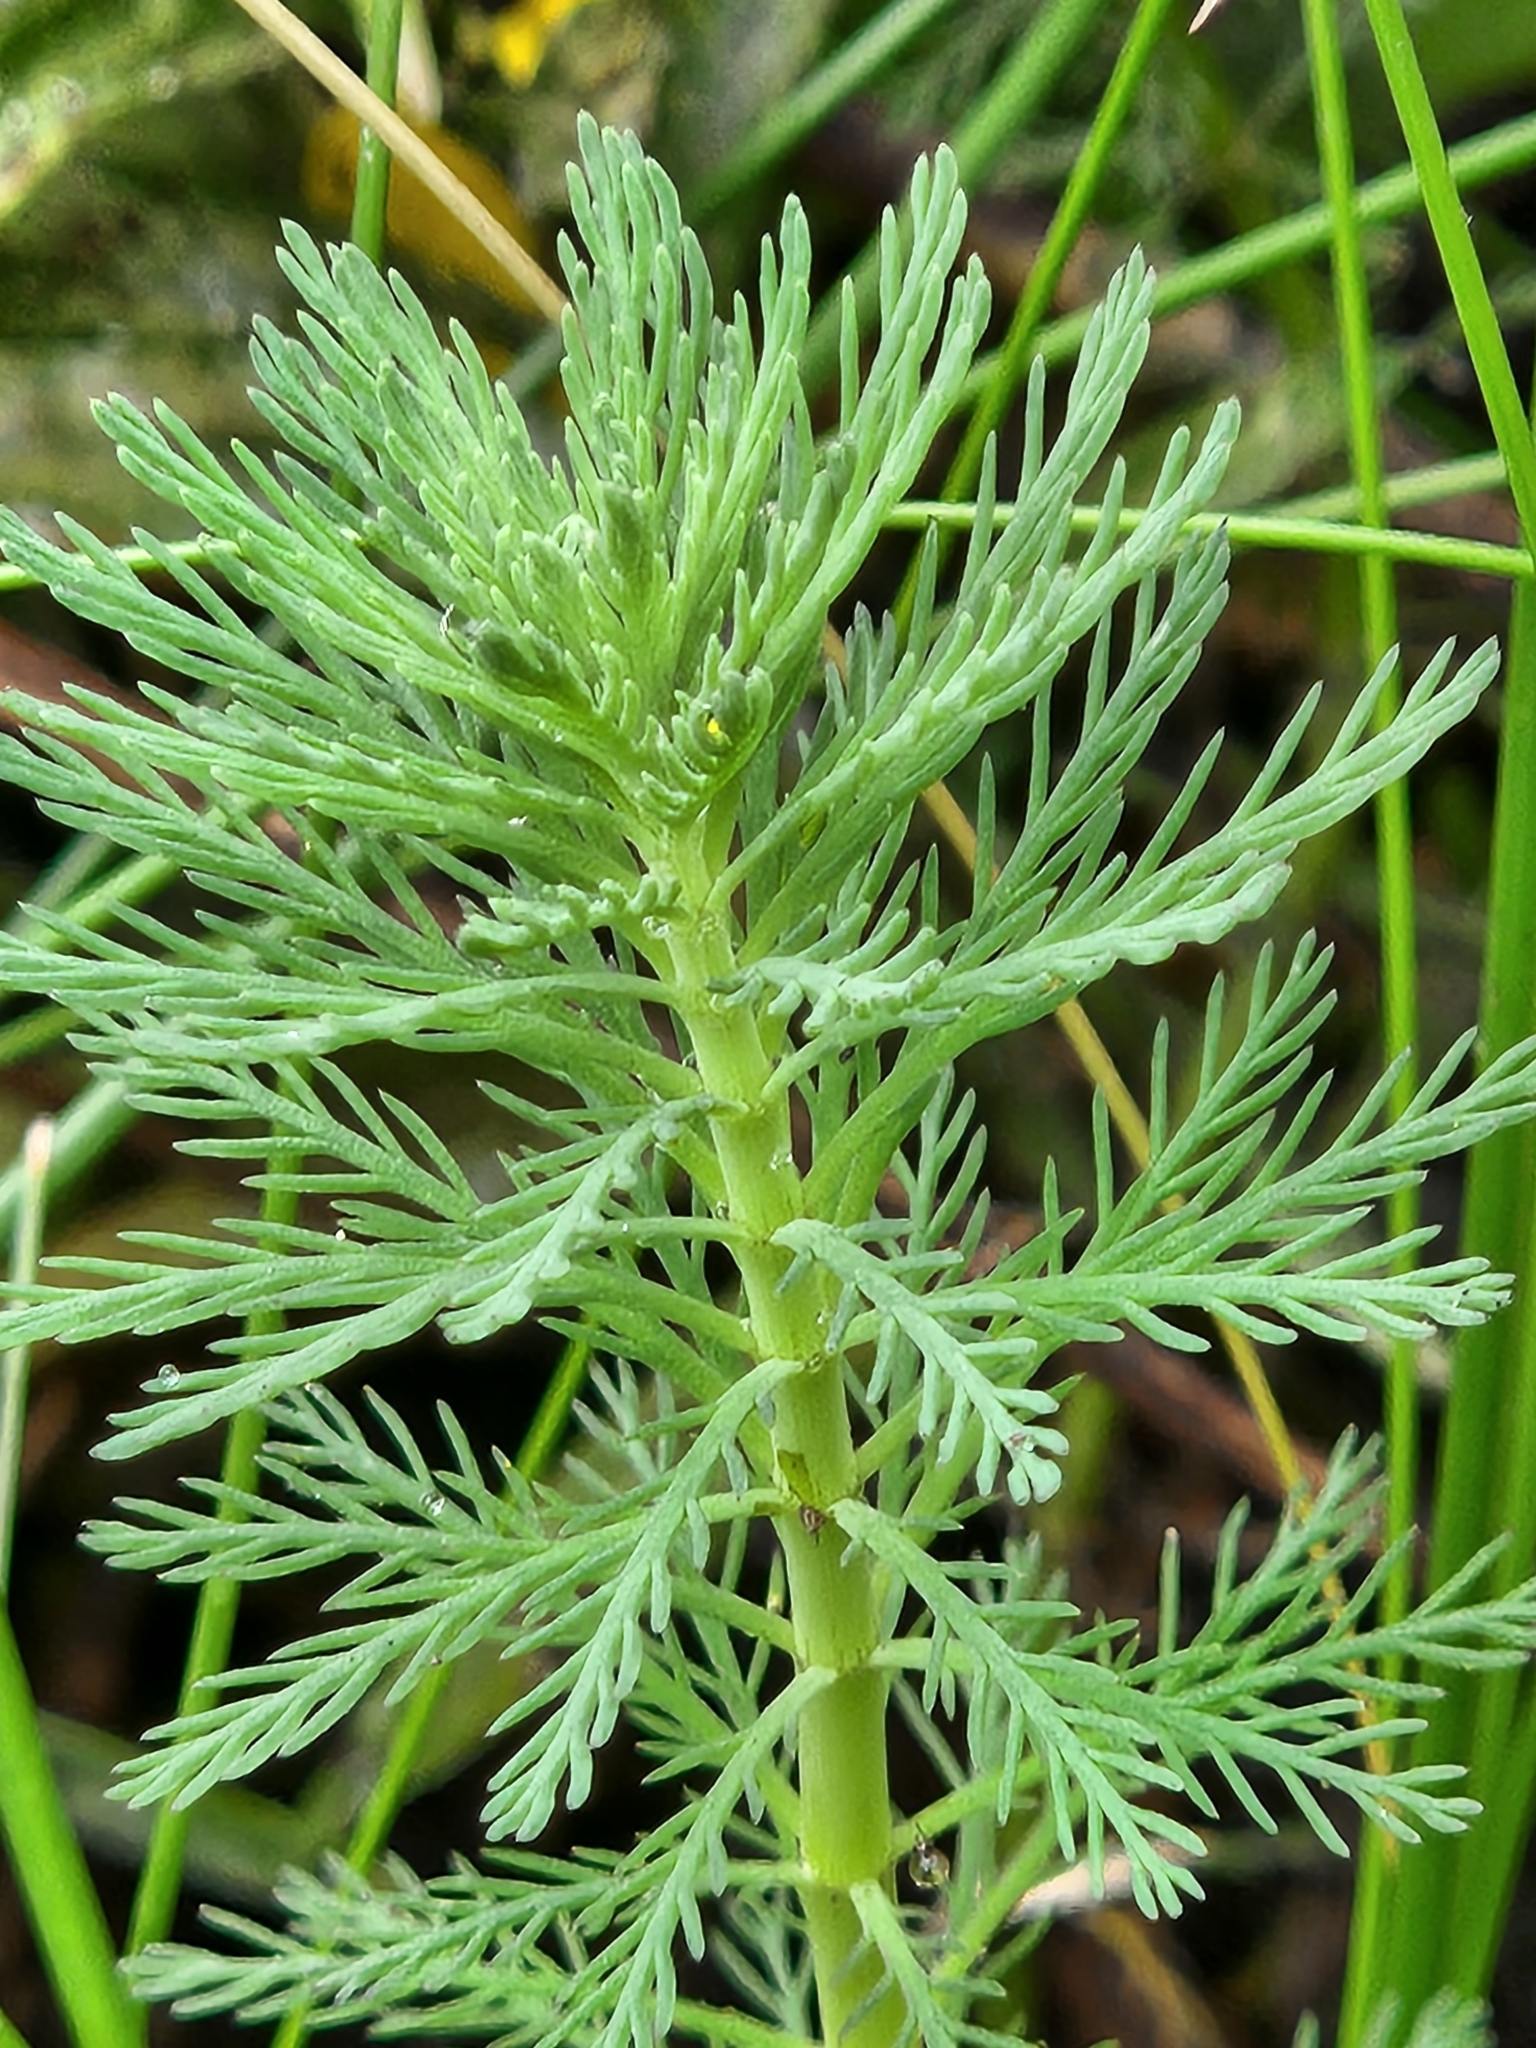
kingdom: Plantae
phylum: Tracheophyta
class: Magnoliopsida
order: Saxifragales
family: Haloragaceae
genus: Myriophyllum
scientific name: Myriophyllum aquaticum
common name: Parrot's feather
